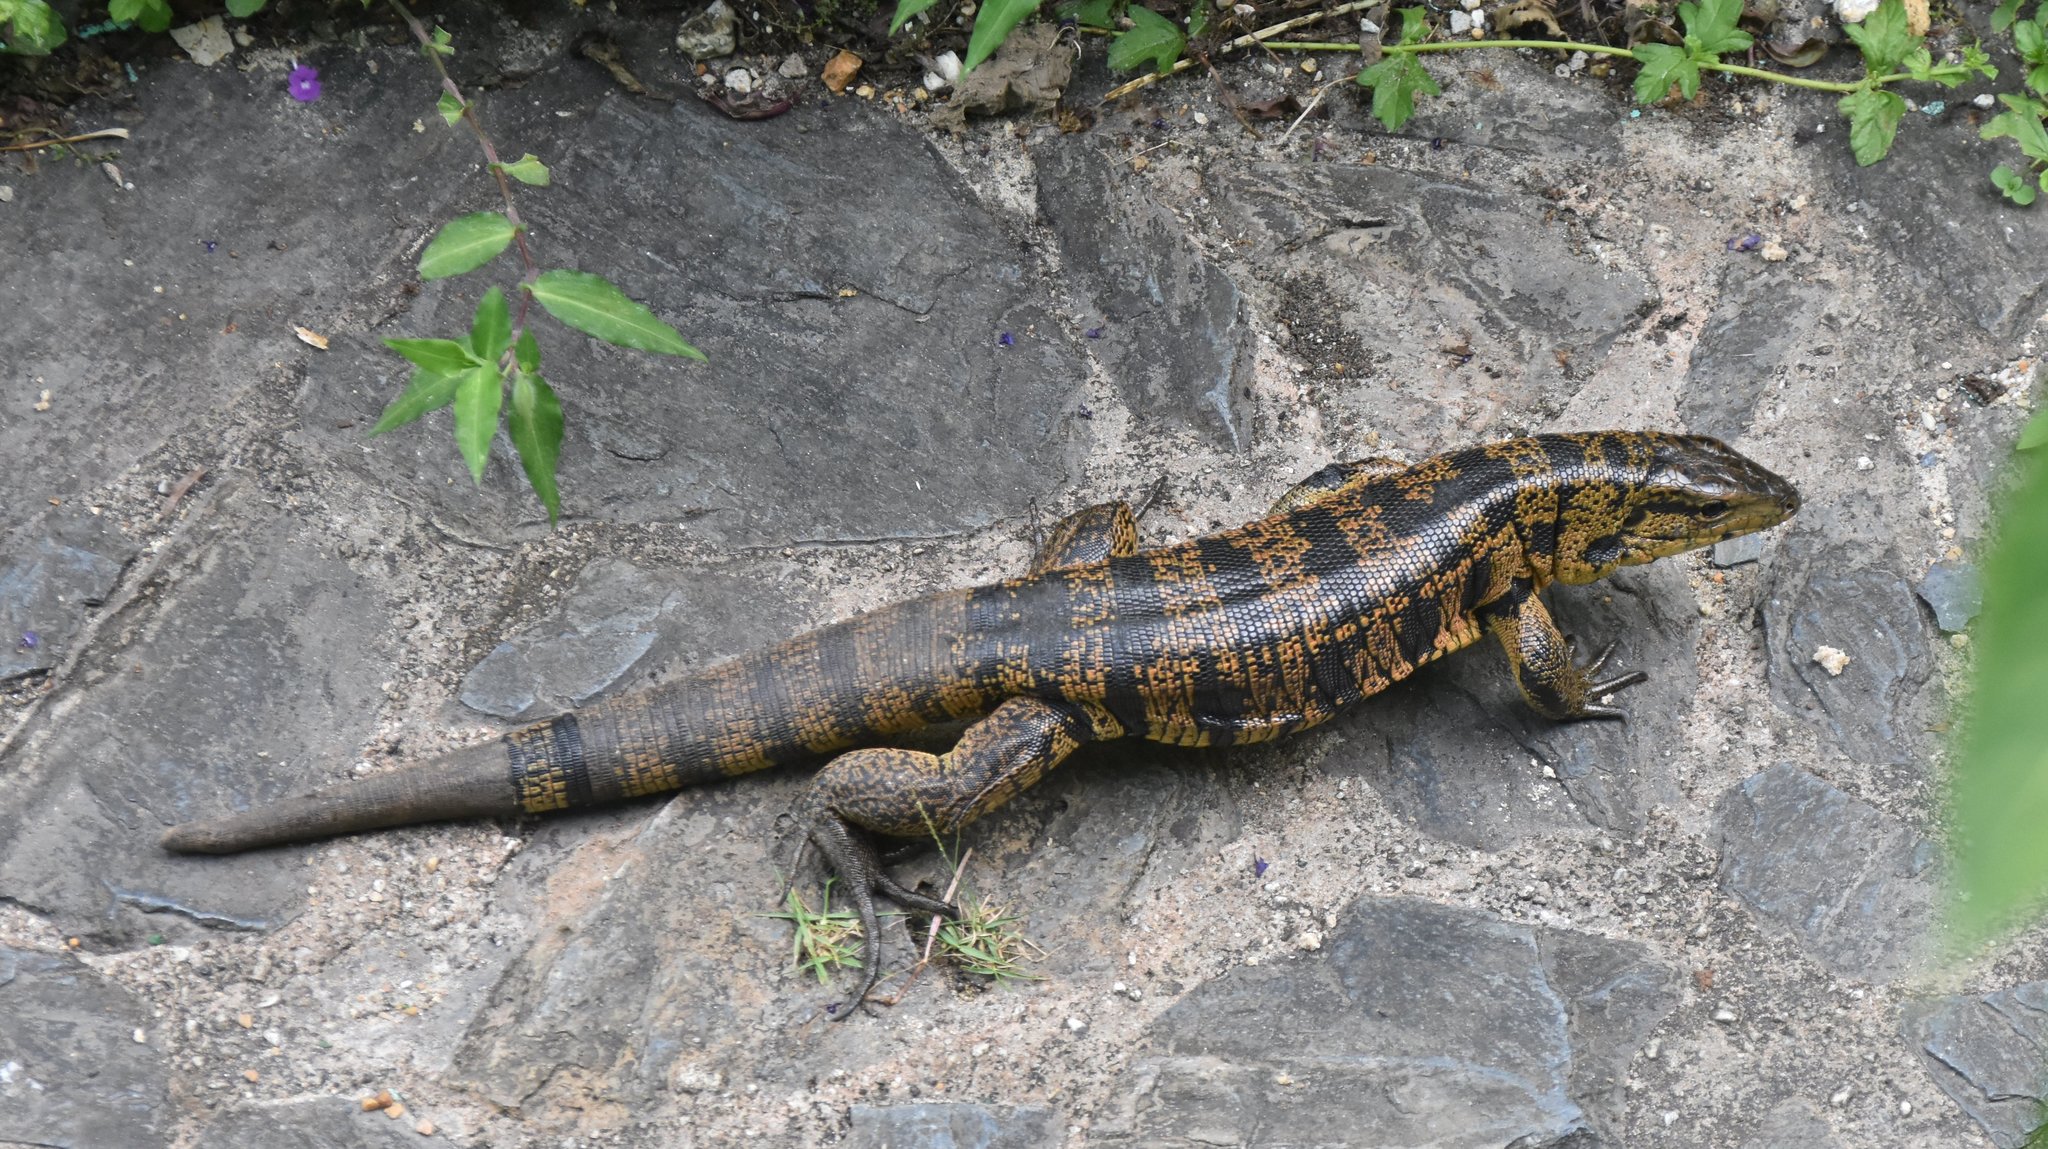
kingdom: Animalia
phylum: Chordata
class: Squamata
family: Teiidae
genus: Tupinambis
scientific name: Tupinambis cryptus
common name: Cryptic golden tegu
